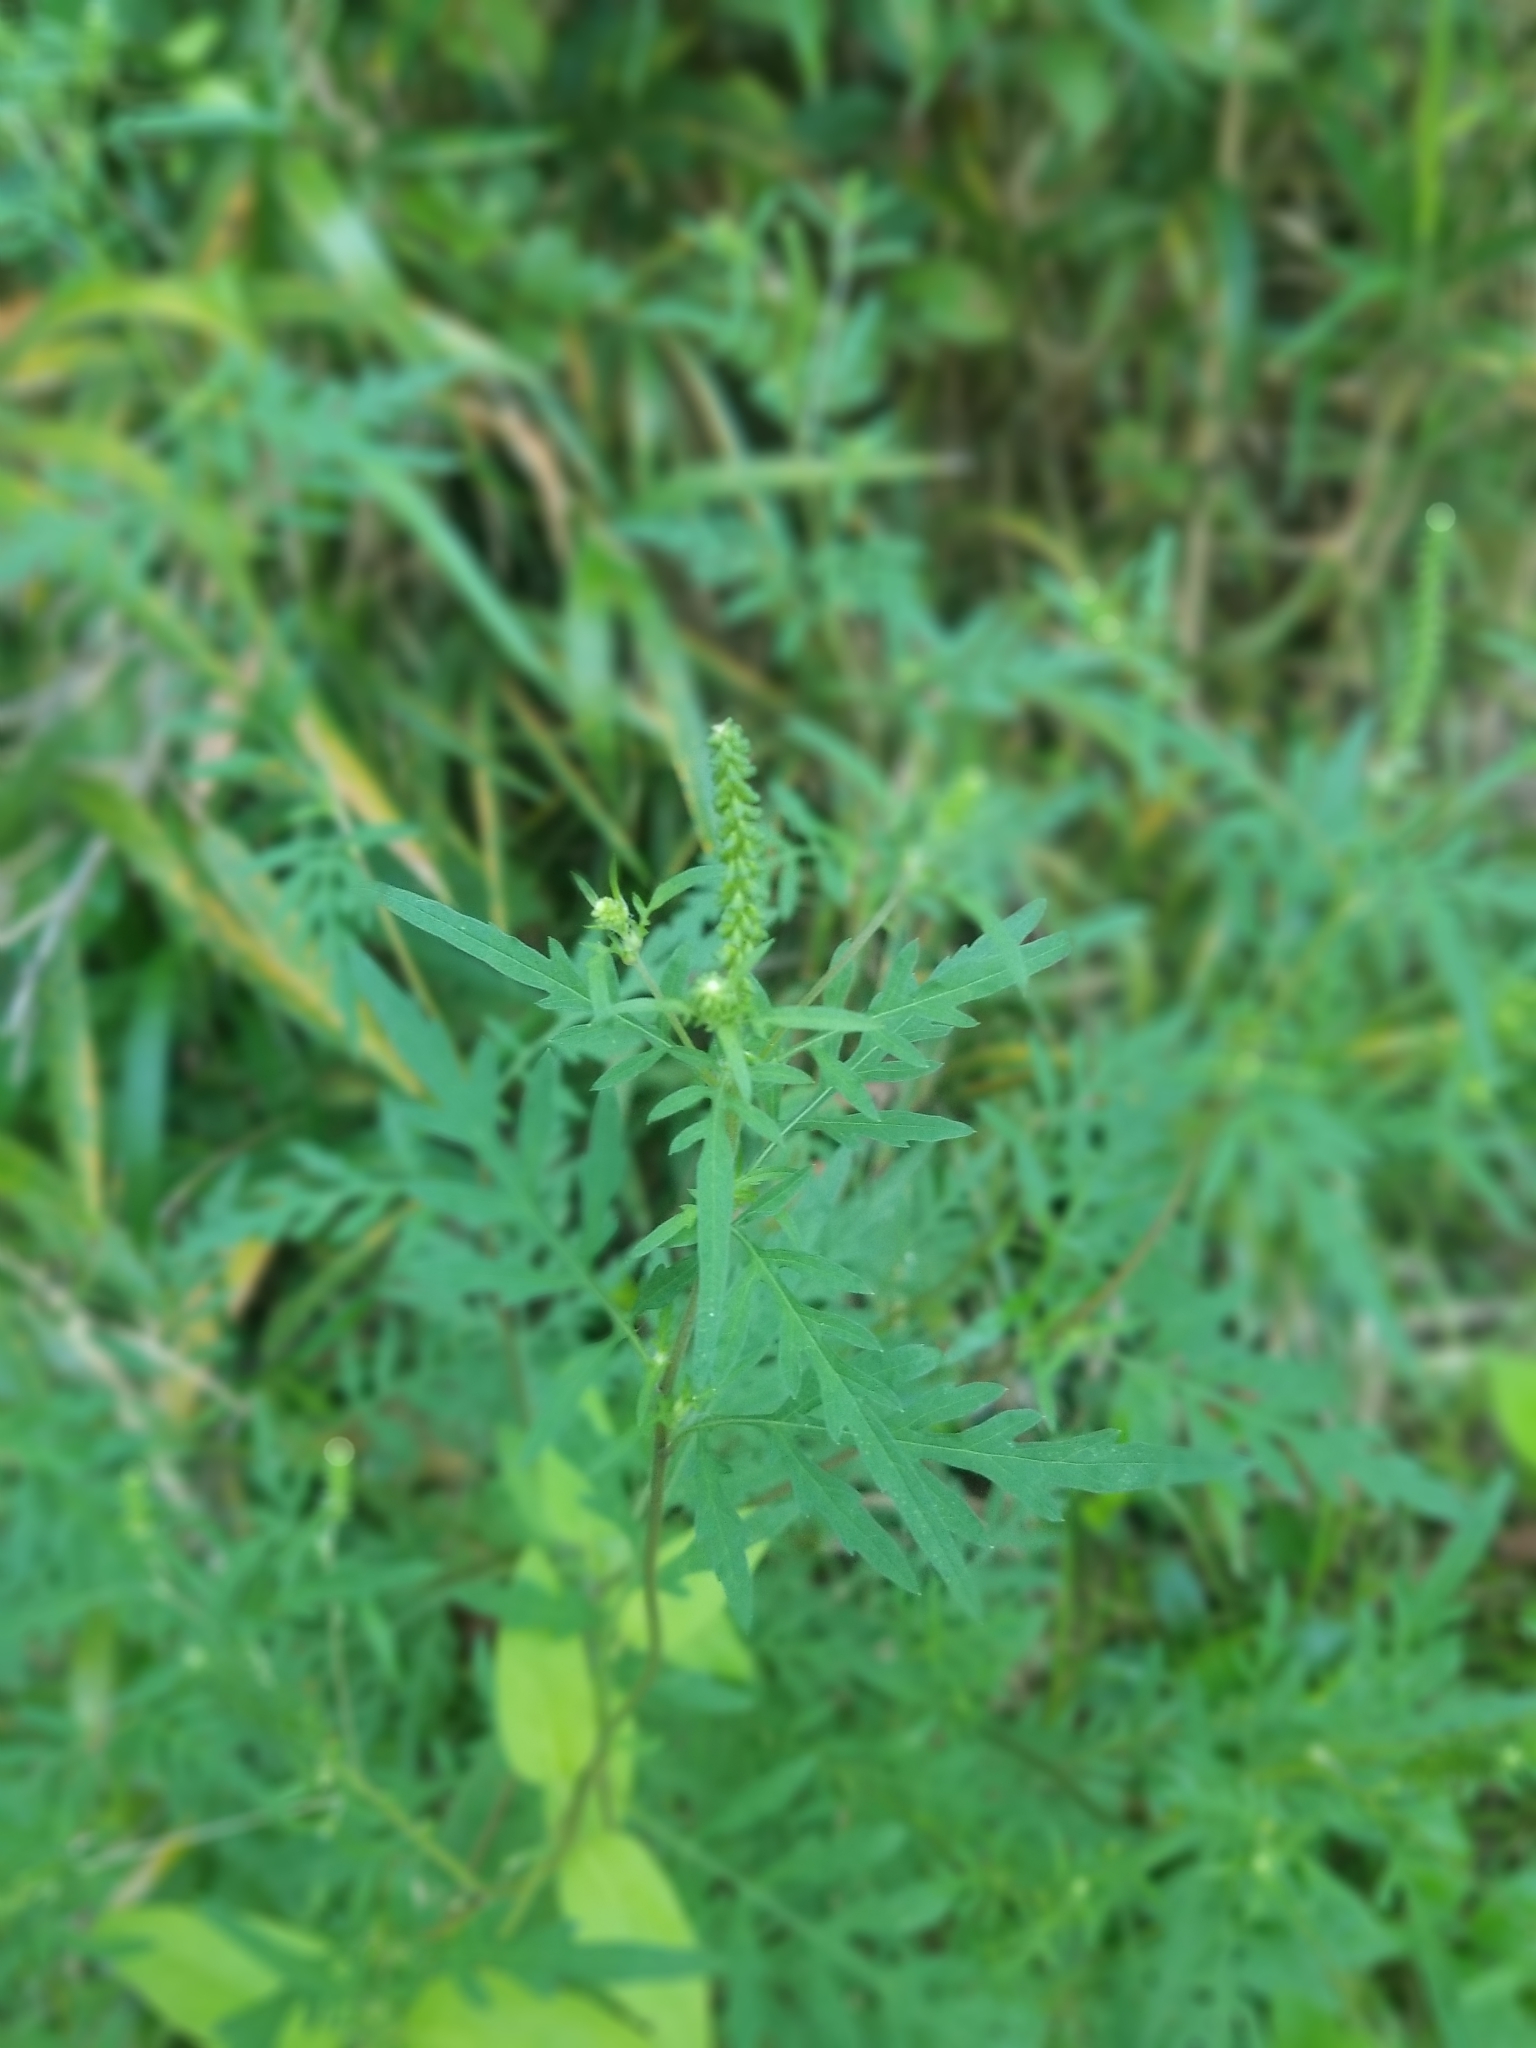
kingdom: Plantae
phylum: Tracheophyta
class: Magnoliopsida
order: Asterales
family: Asteraceae
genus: Ambrosia
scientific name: Ambrosia artemisiifolia
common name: Annual ragweed
